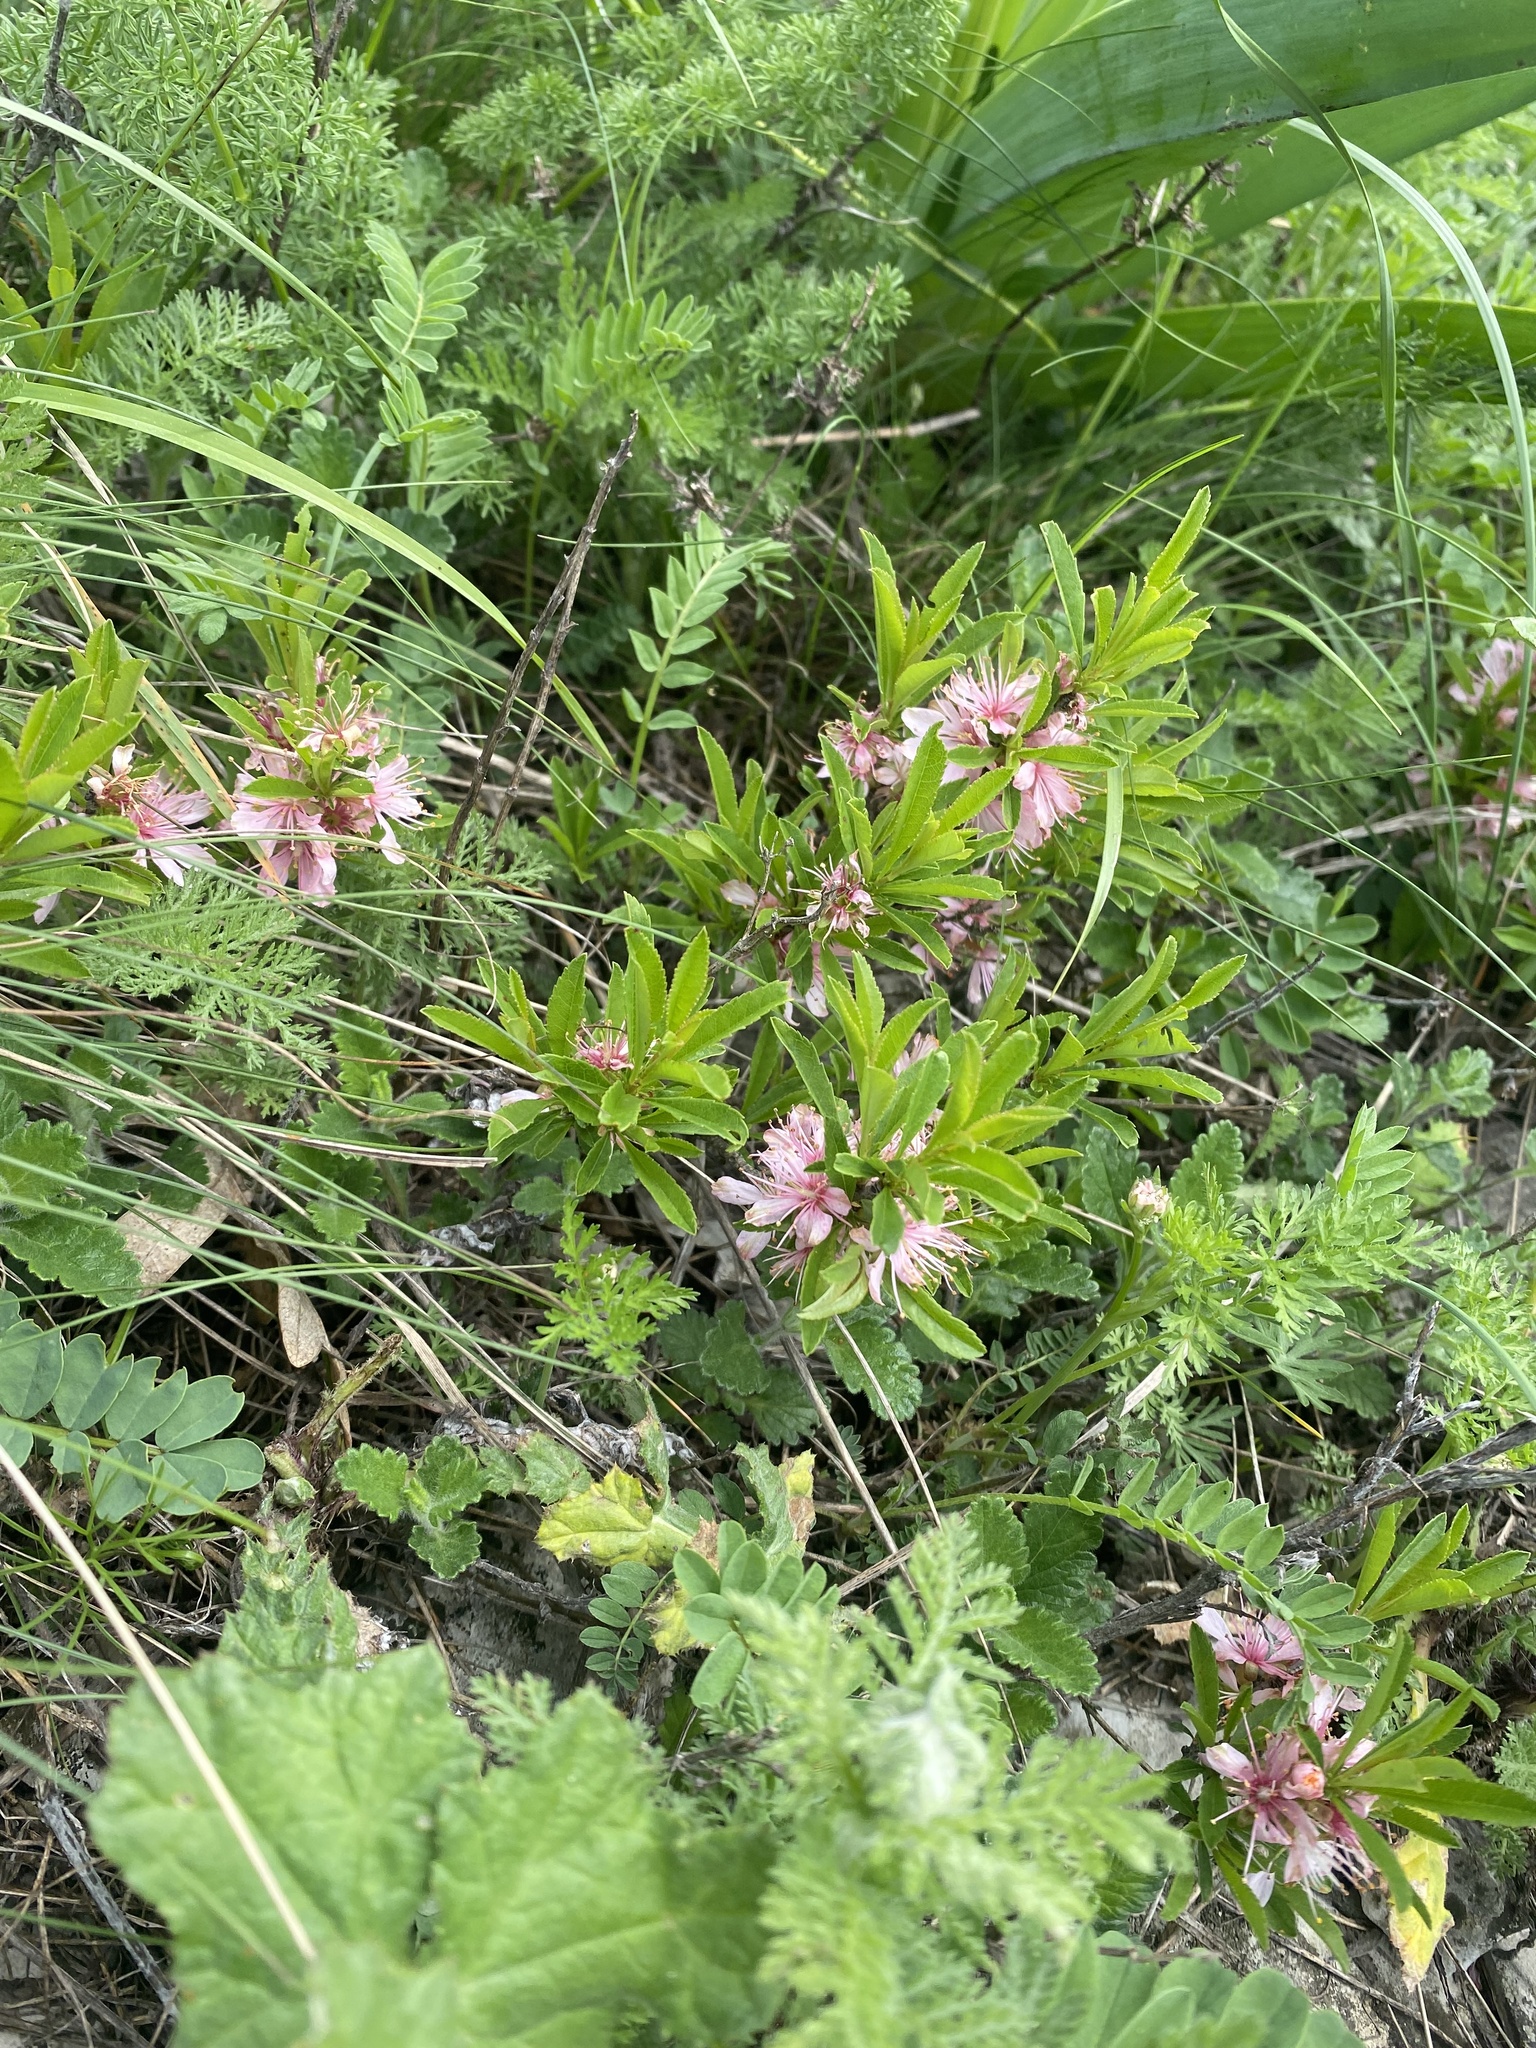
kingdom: Plantae
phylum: Tracheophyta
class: Magnoliopsida
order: Rosales
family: Rosaceae
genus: Prunus
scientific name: Prunus tenella
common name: Dwarf russian almond
